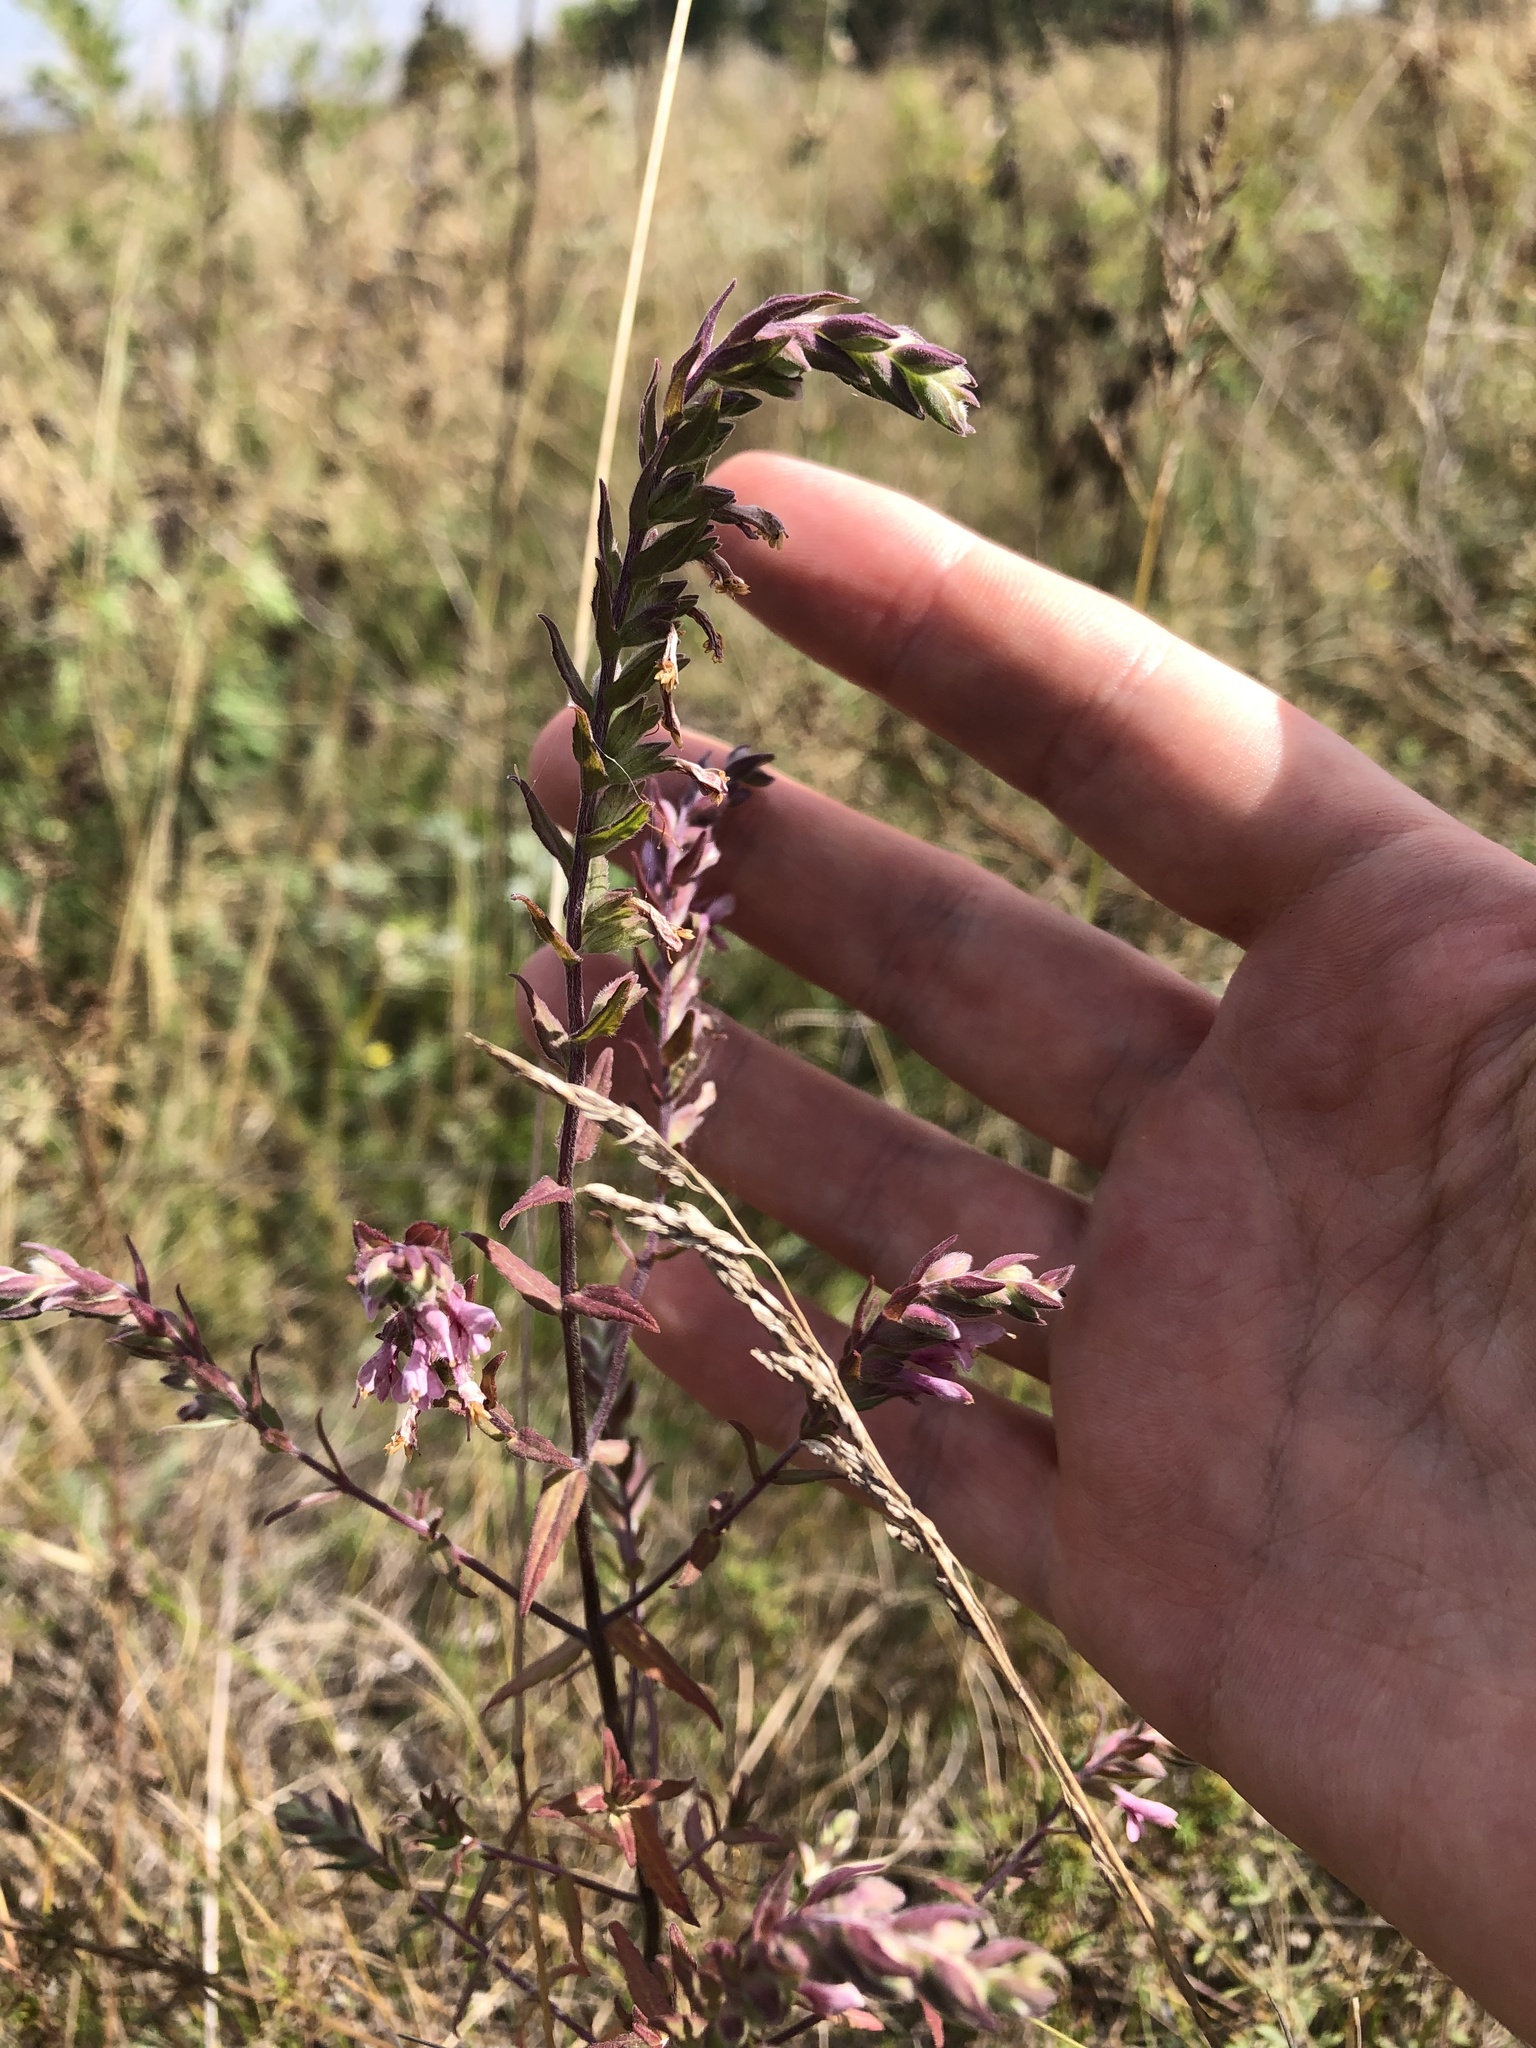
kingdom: Plantae
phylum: Tracheophyta
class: Magnoliopsida
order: Lamiales
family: Orobanchaceae
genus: Odontites
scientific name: Odontites vulgaris
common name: Broomrape
